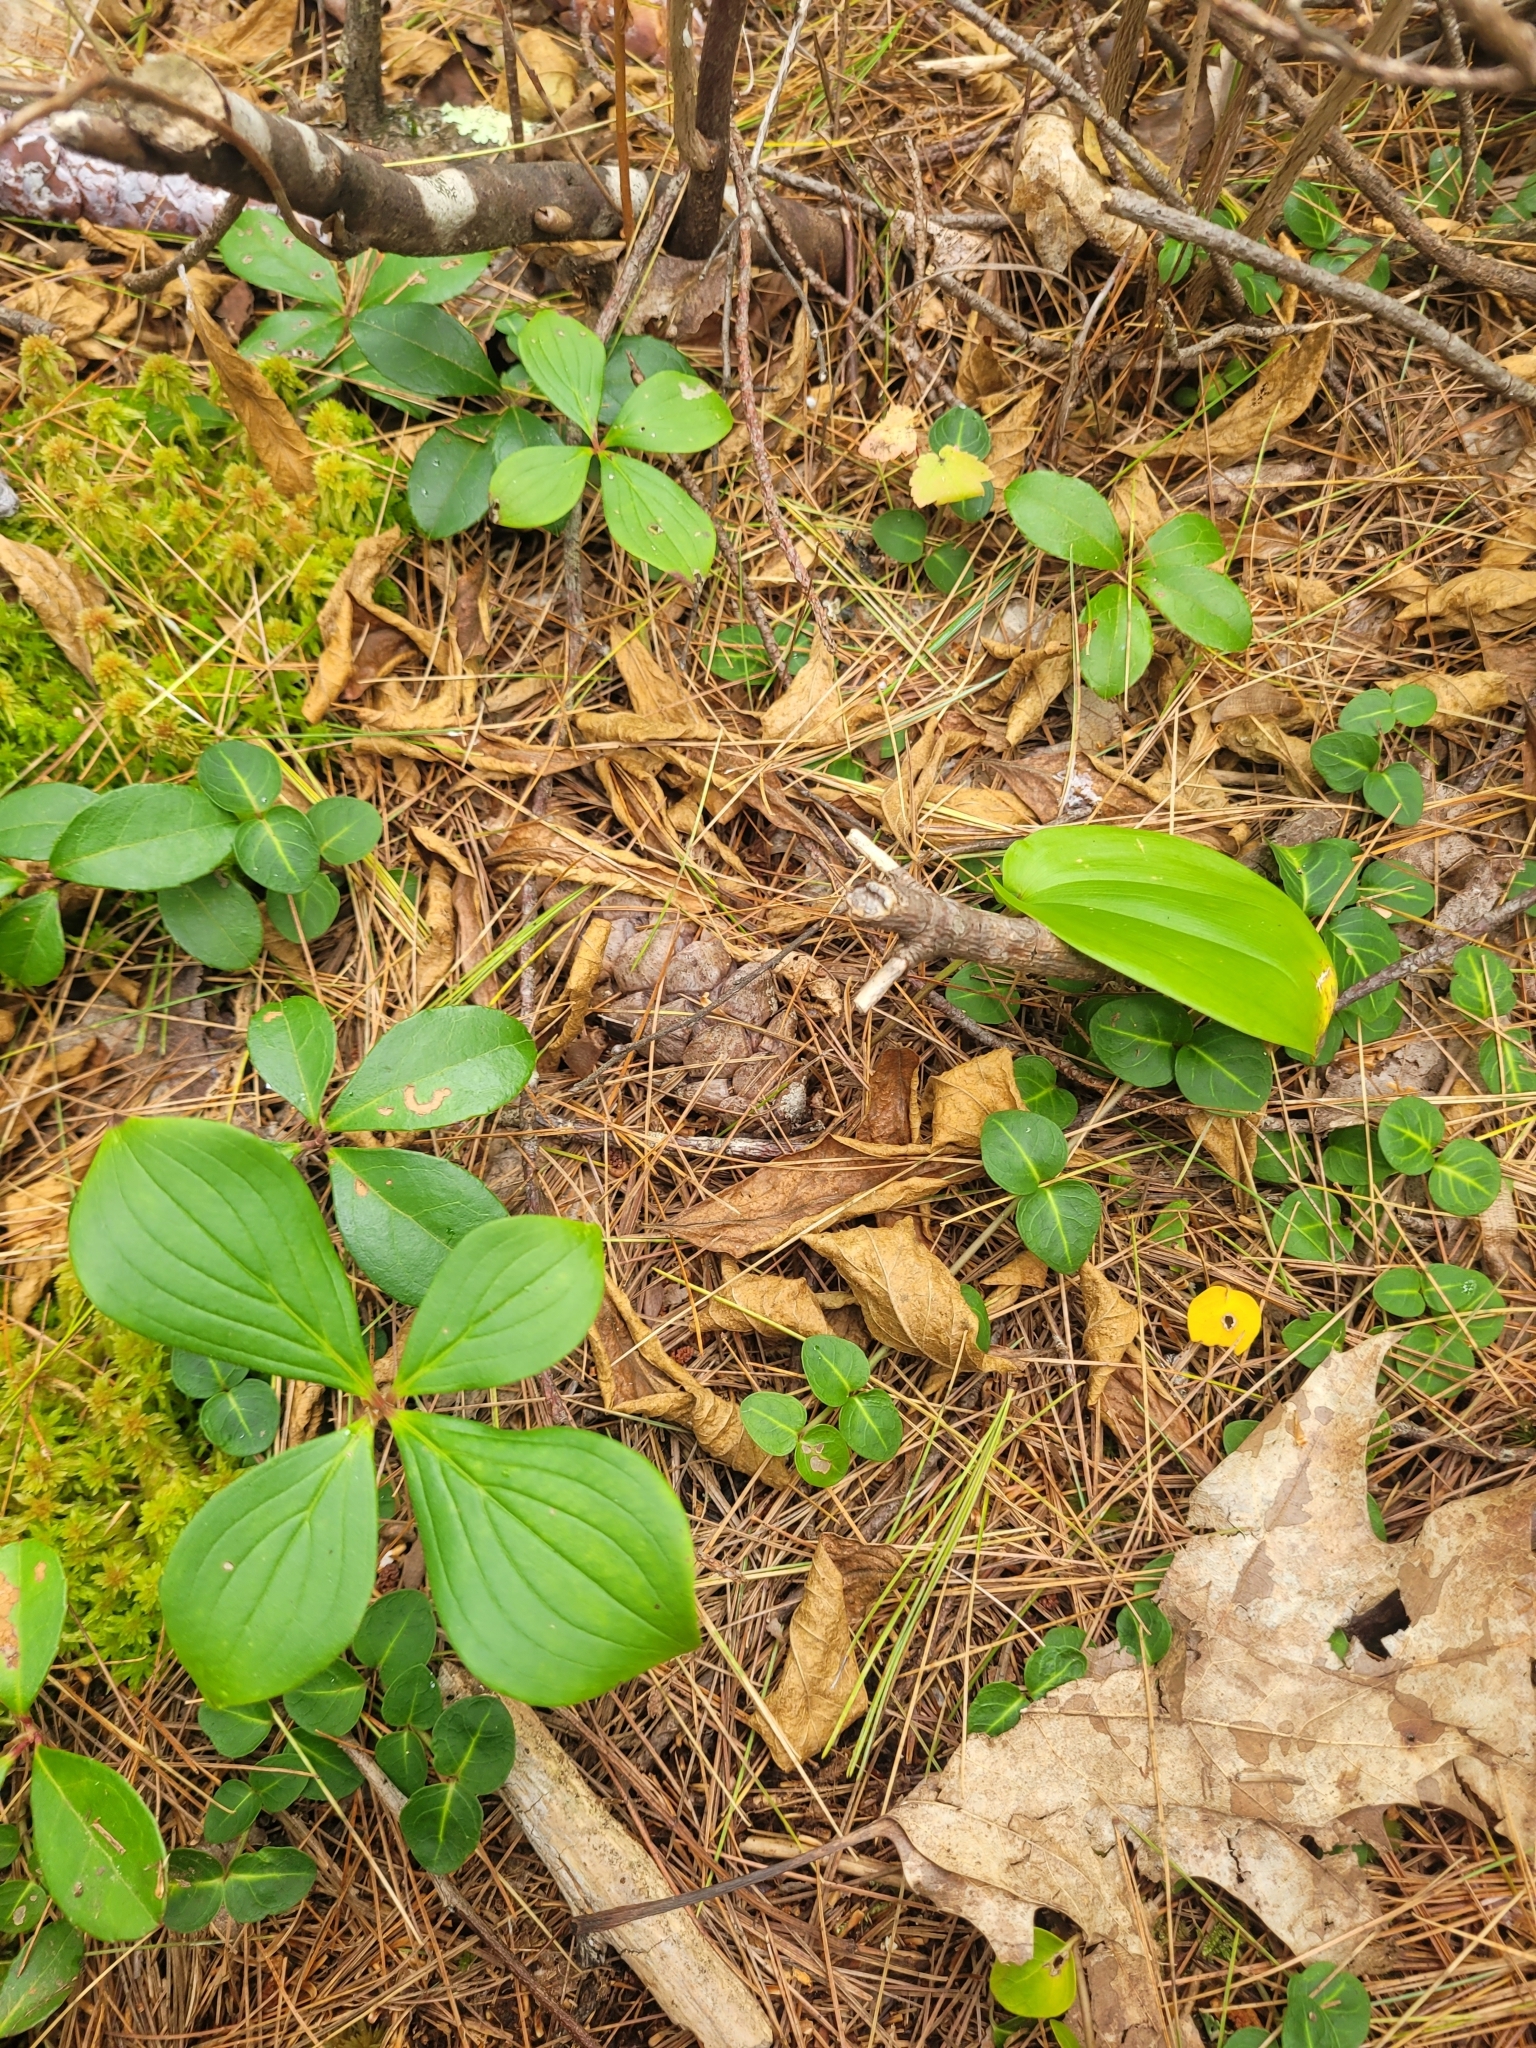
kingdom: Plantae
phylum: Tracheophyta
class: Magnoliopsida
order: Cornales
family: Cornaceae
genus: Cornus
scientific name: Cornus canadensis
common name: Creeping dogwood
